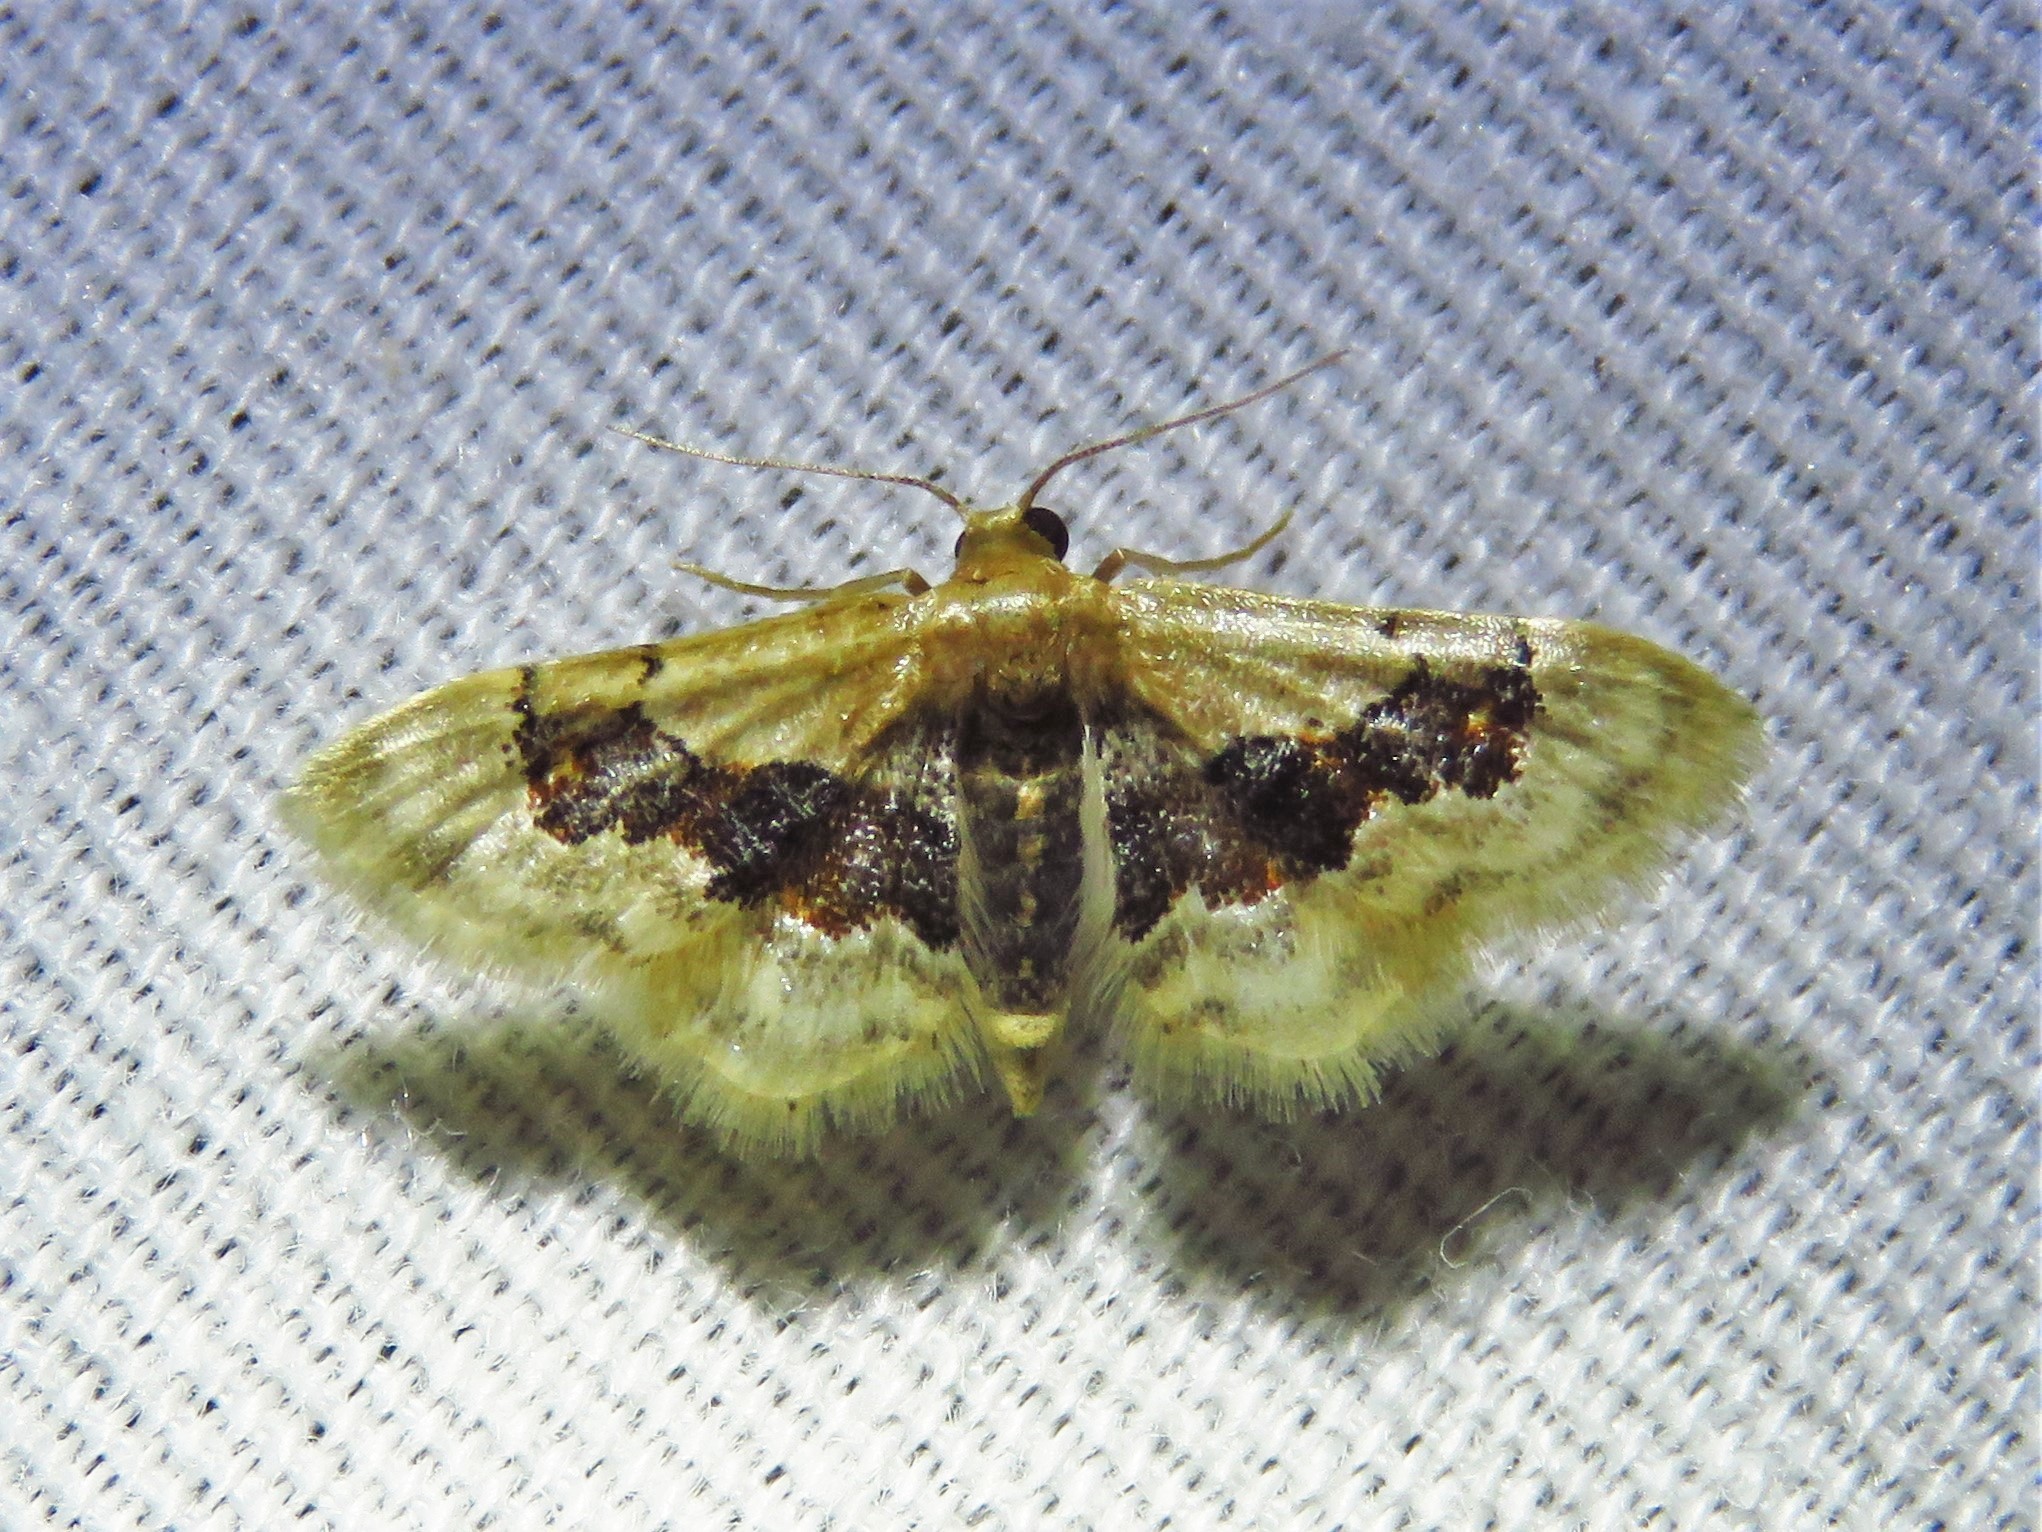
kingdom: Animalia
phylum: Arthropoda
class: Insecta
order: Lepidoptera
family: Geometridae
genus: Idaea
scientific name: Idaea gemmata
